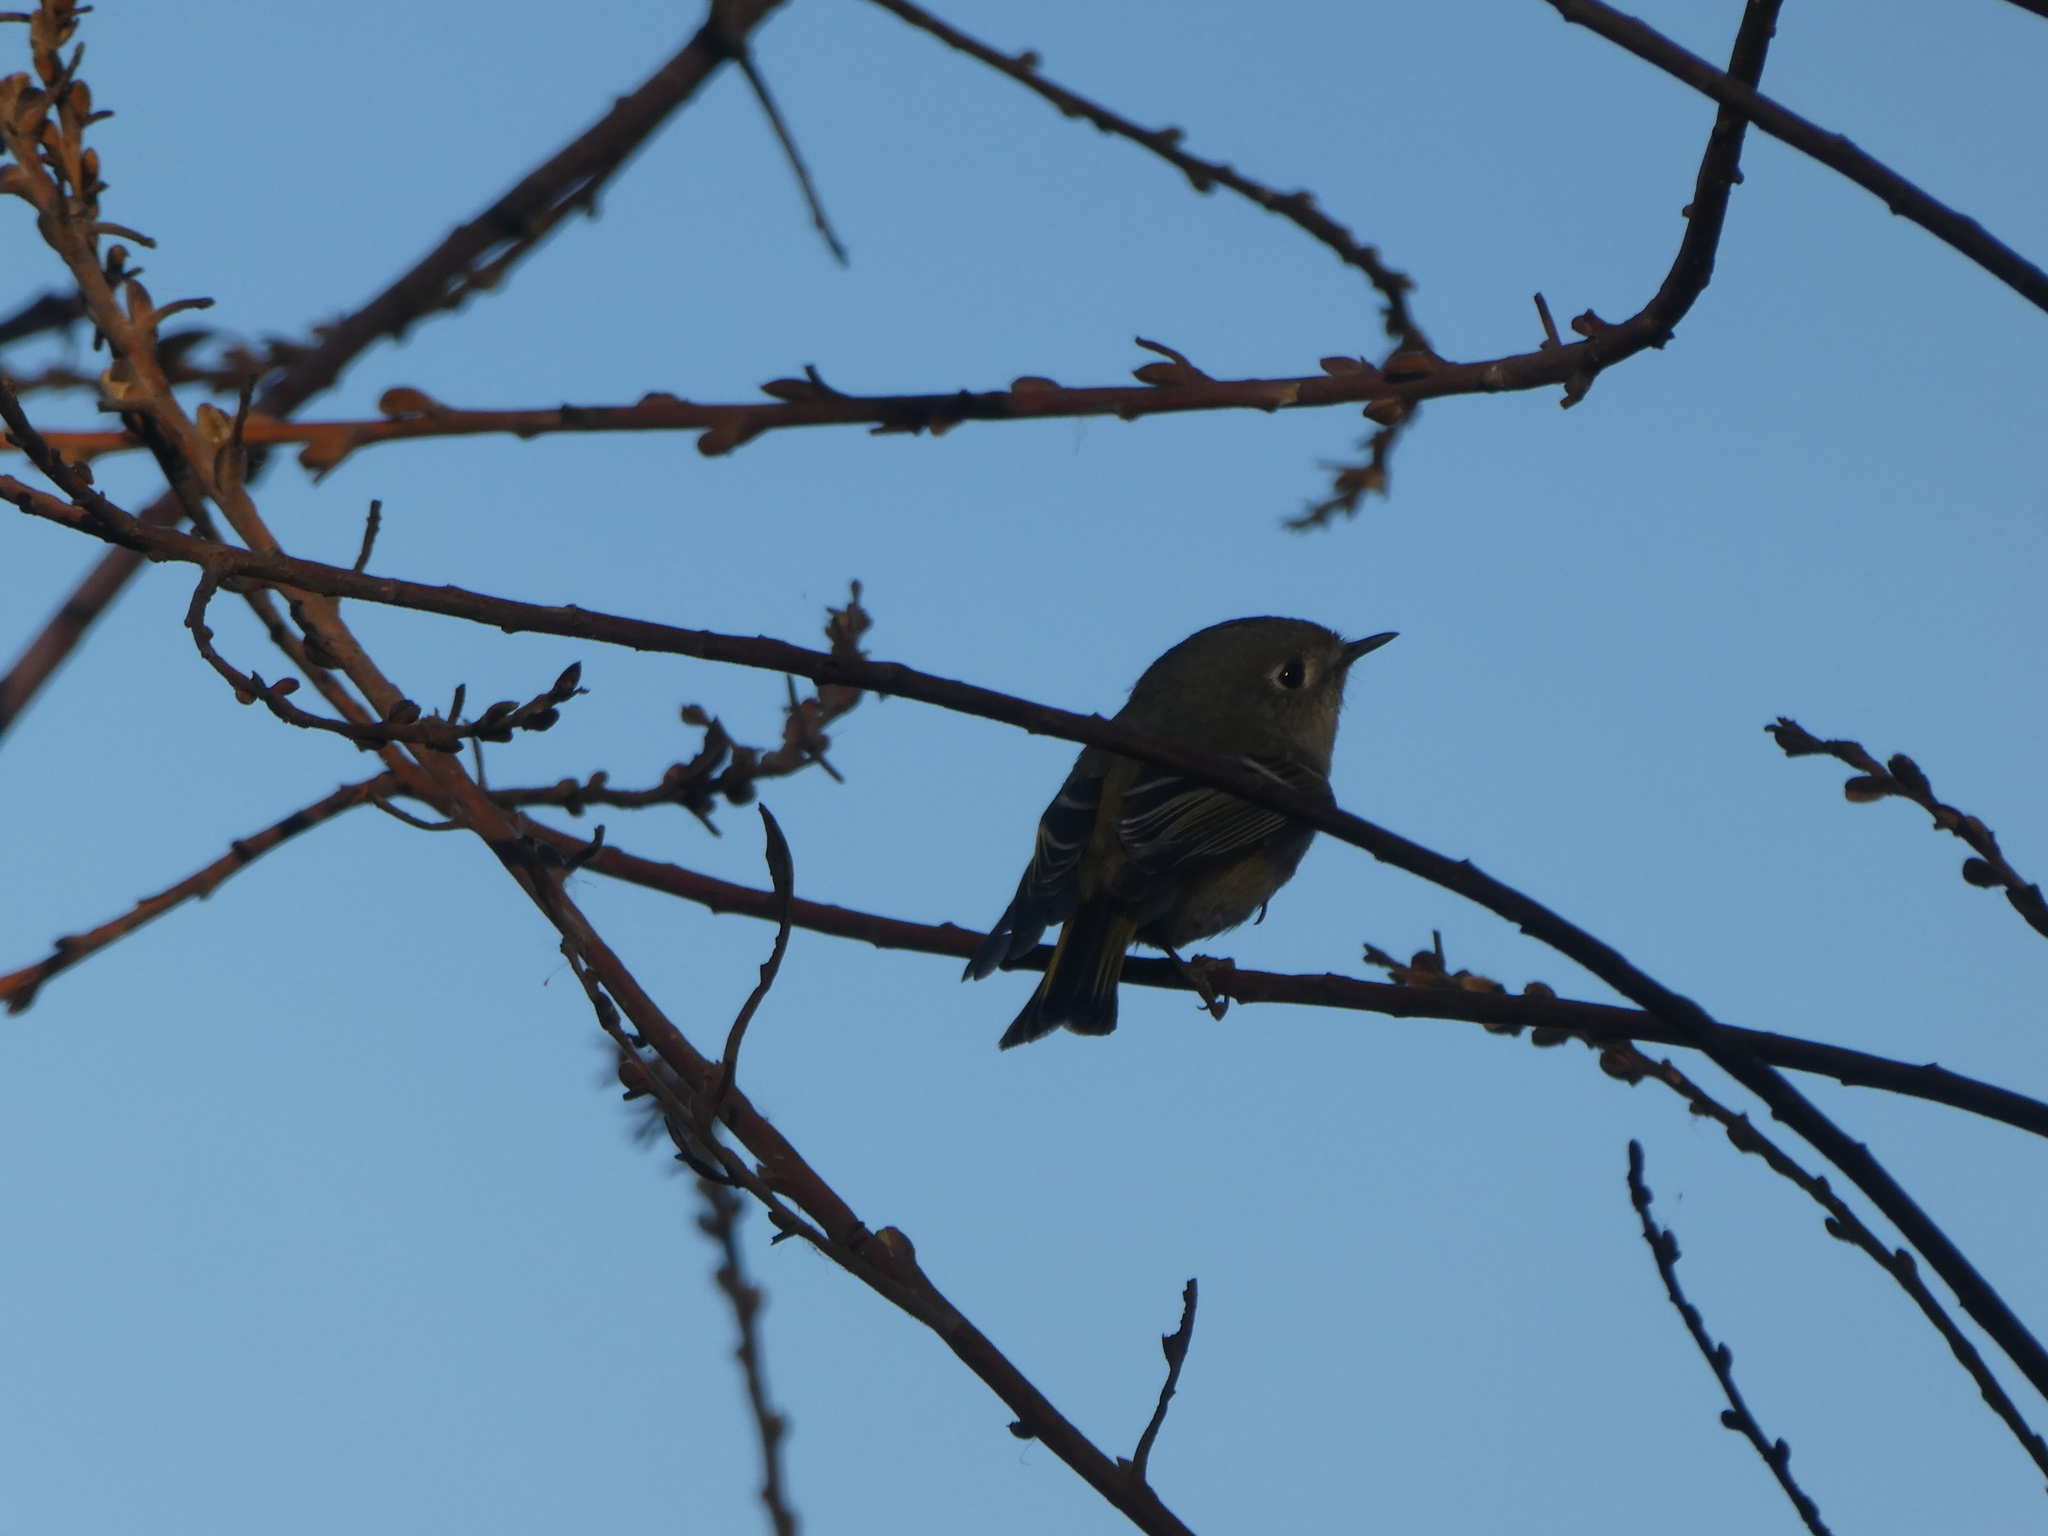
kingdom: Animalia
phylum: Chordata
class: Aves
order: Passeriformes
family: Regulidae
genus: Regulus
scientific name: Regulus calendula
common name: Ruby-crowned kinglet
